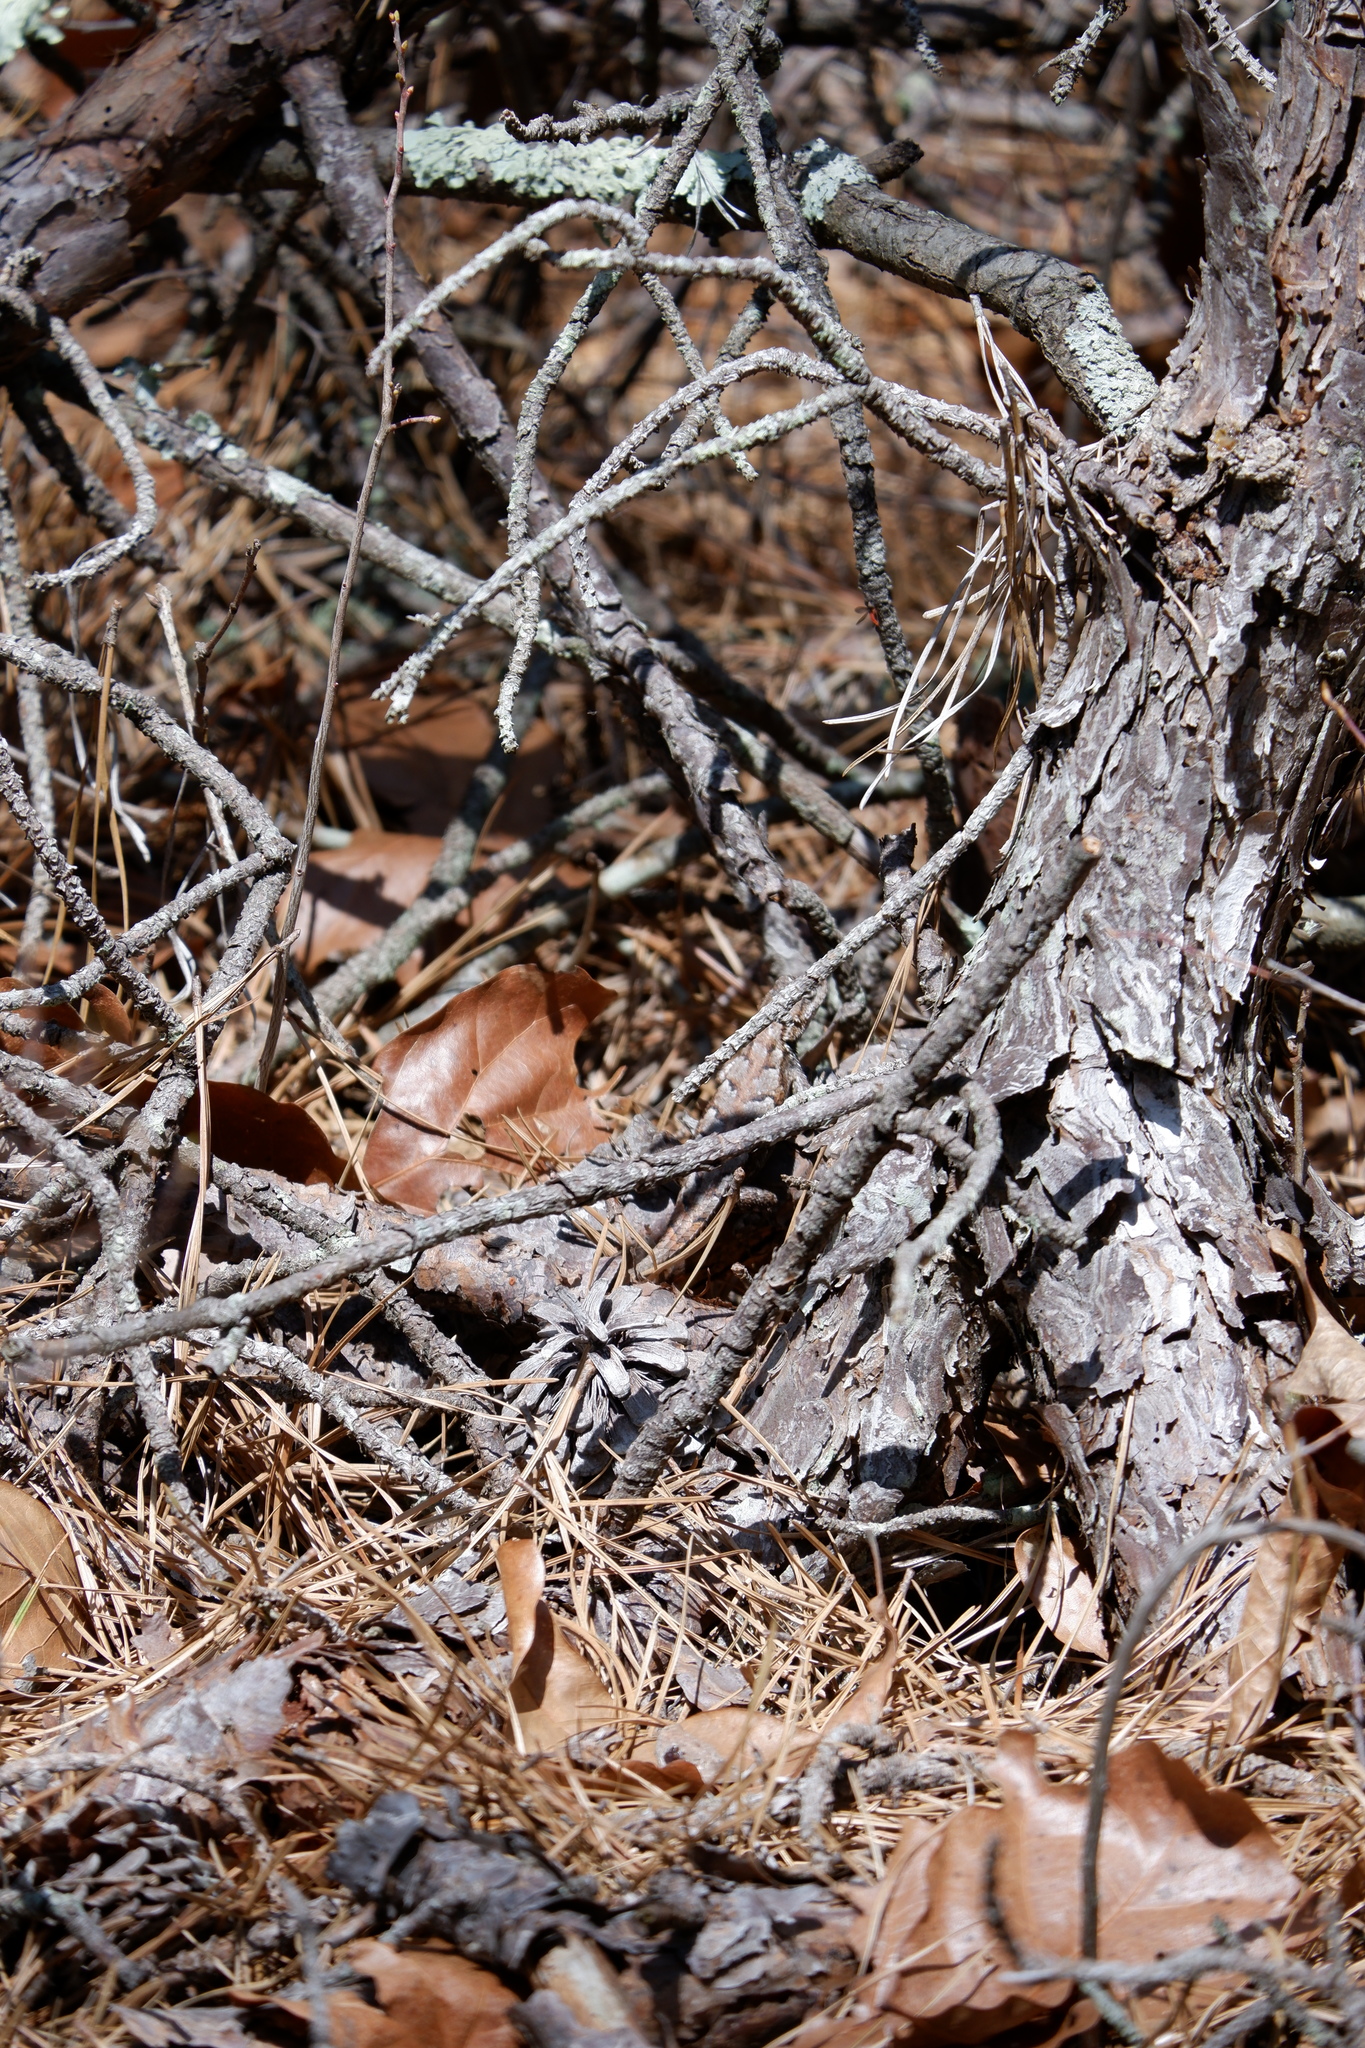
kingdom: Animalia
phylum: Chordata
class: Squamata
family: Phrynosomatidae
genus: Sceloporus
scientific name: Sceloporus undulatus
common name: Eastern fence lizard
